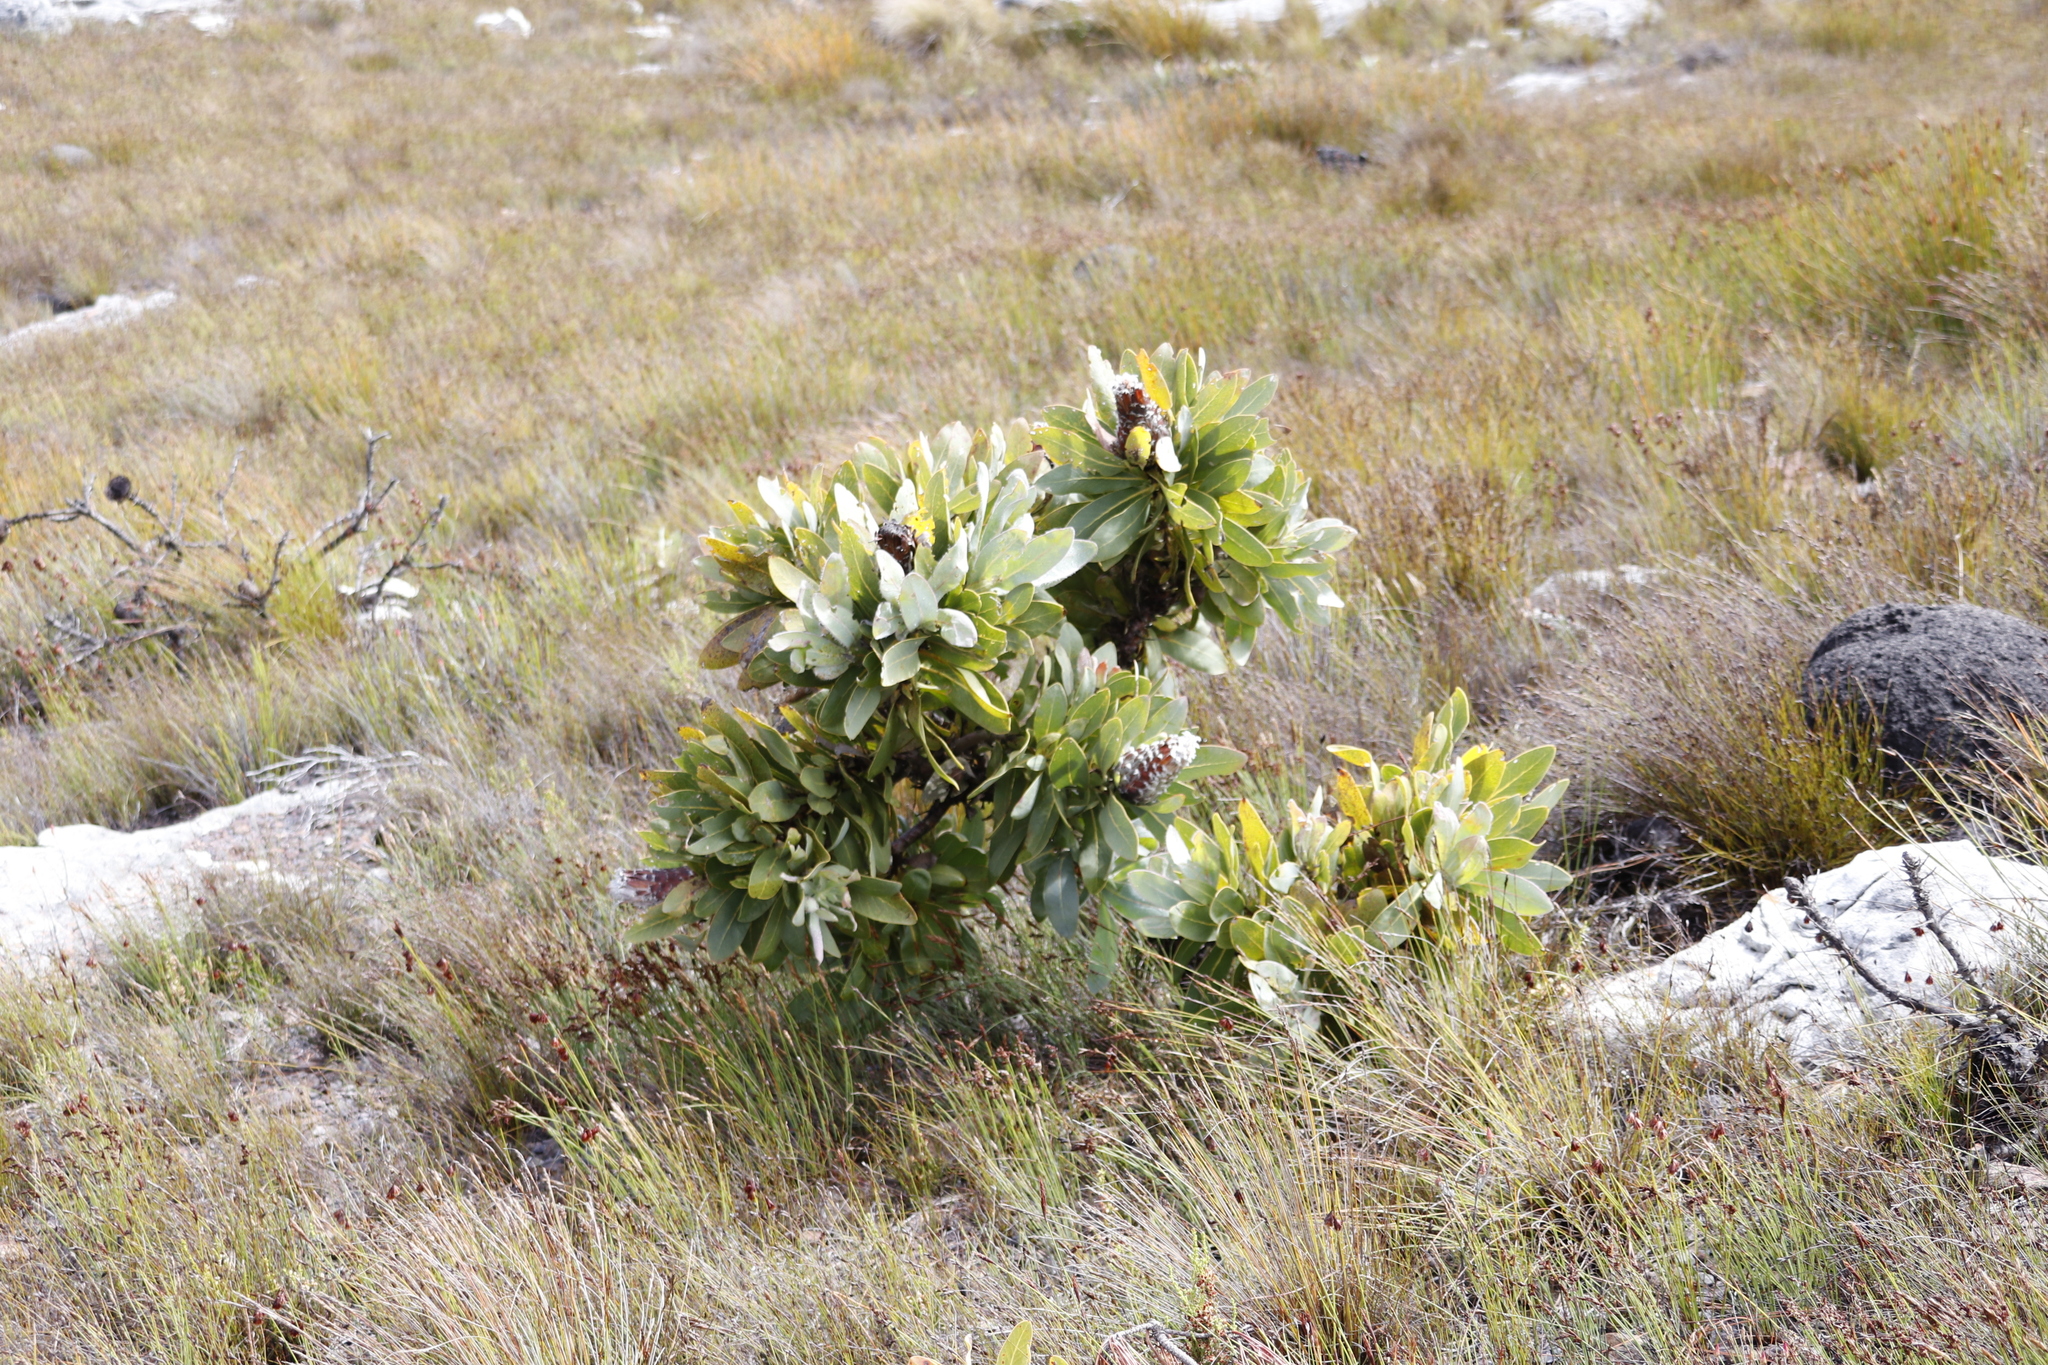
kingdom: Plantae
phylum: Tracheophyta
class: Magnoliopsida
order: Proteales
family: Proteaceae
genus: Protea
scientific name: Protea magnifica
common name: Bearded sugarbush
